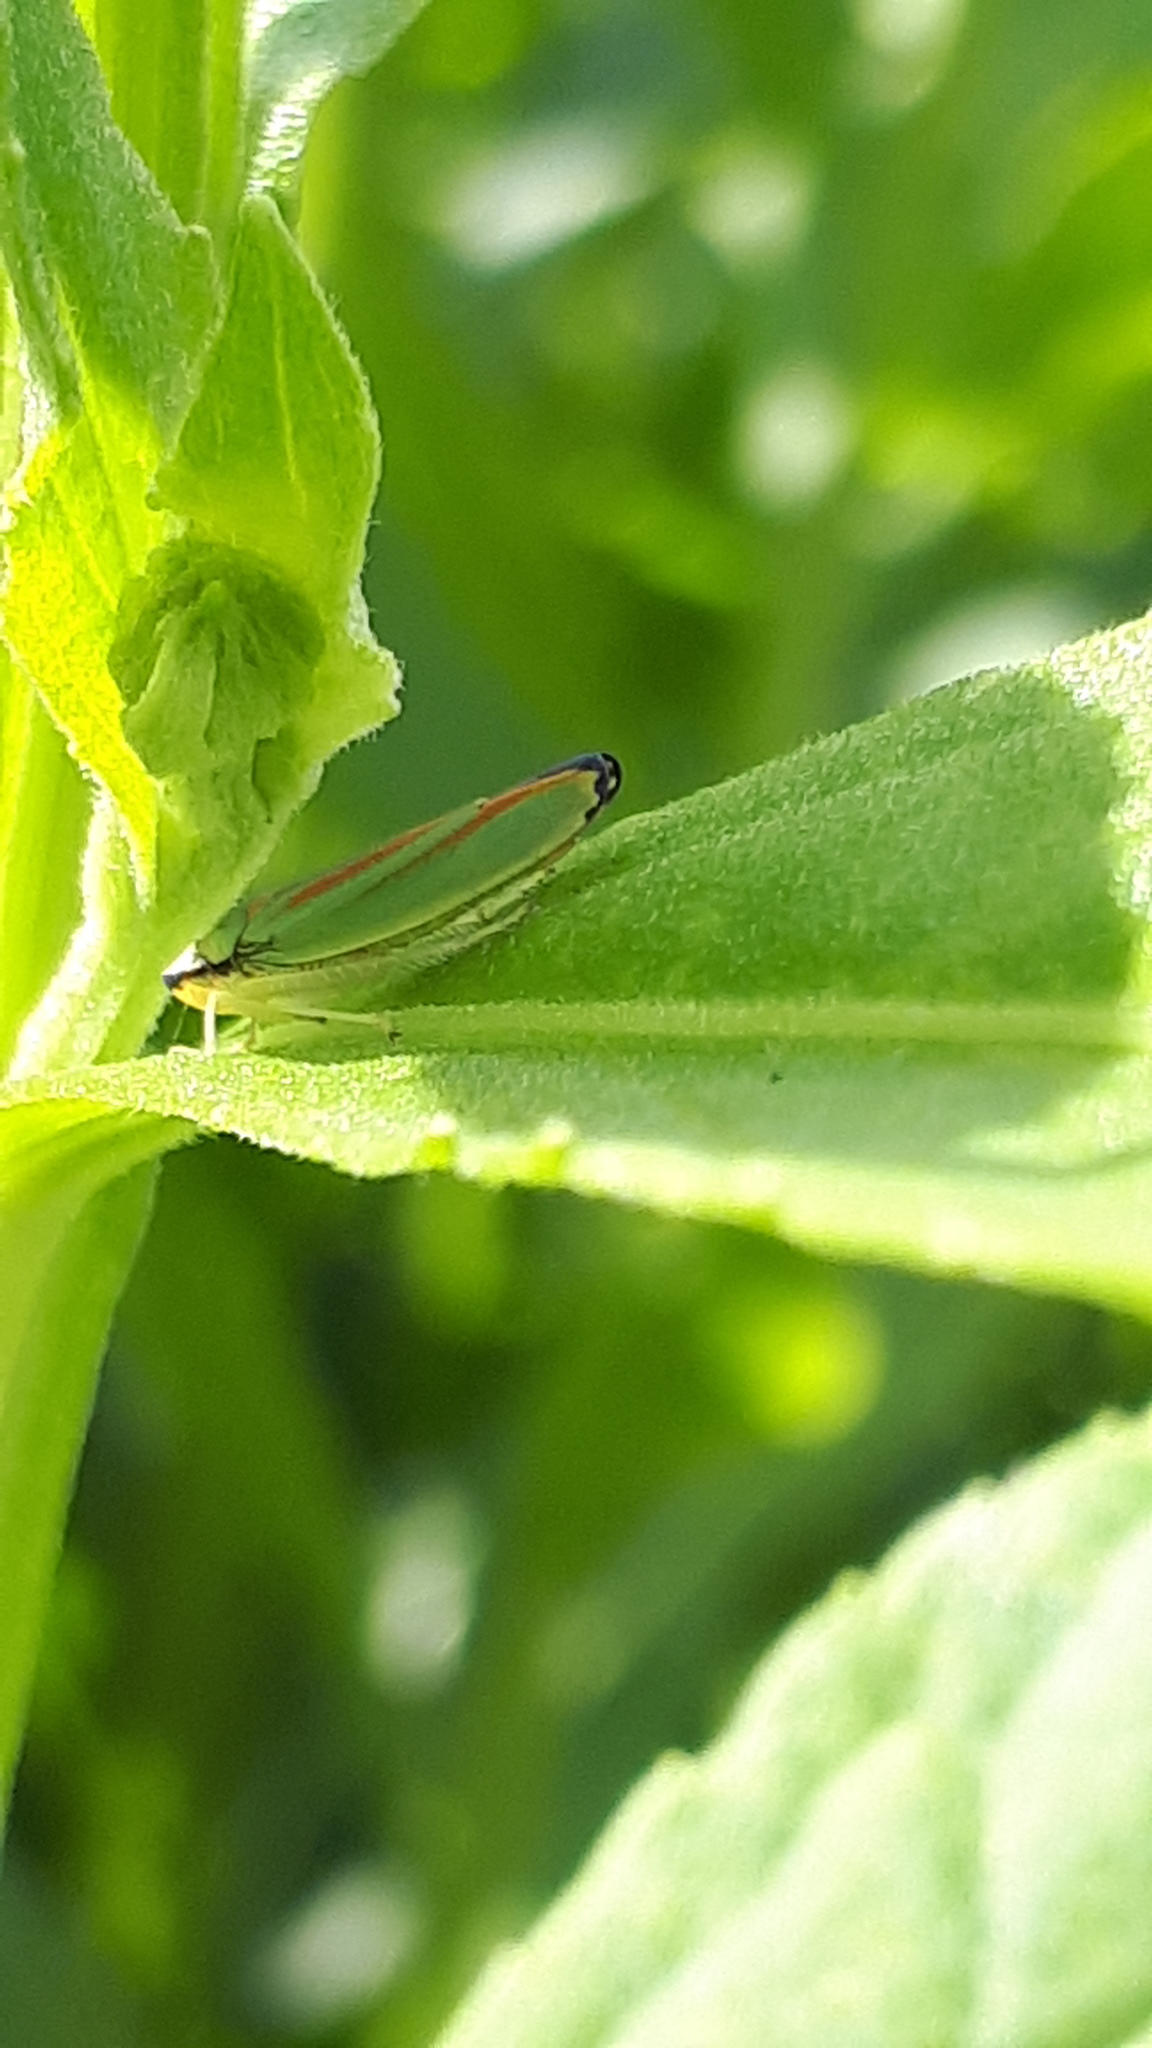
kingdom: Animalia
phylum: Arthropoda
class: Insecta
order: Hemiptera
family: Cicadellidae
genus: Graphocephala
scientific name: Graphocephala fennahi
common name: Rhododendron leafhopper
